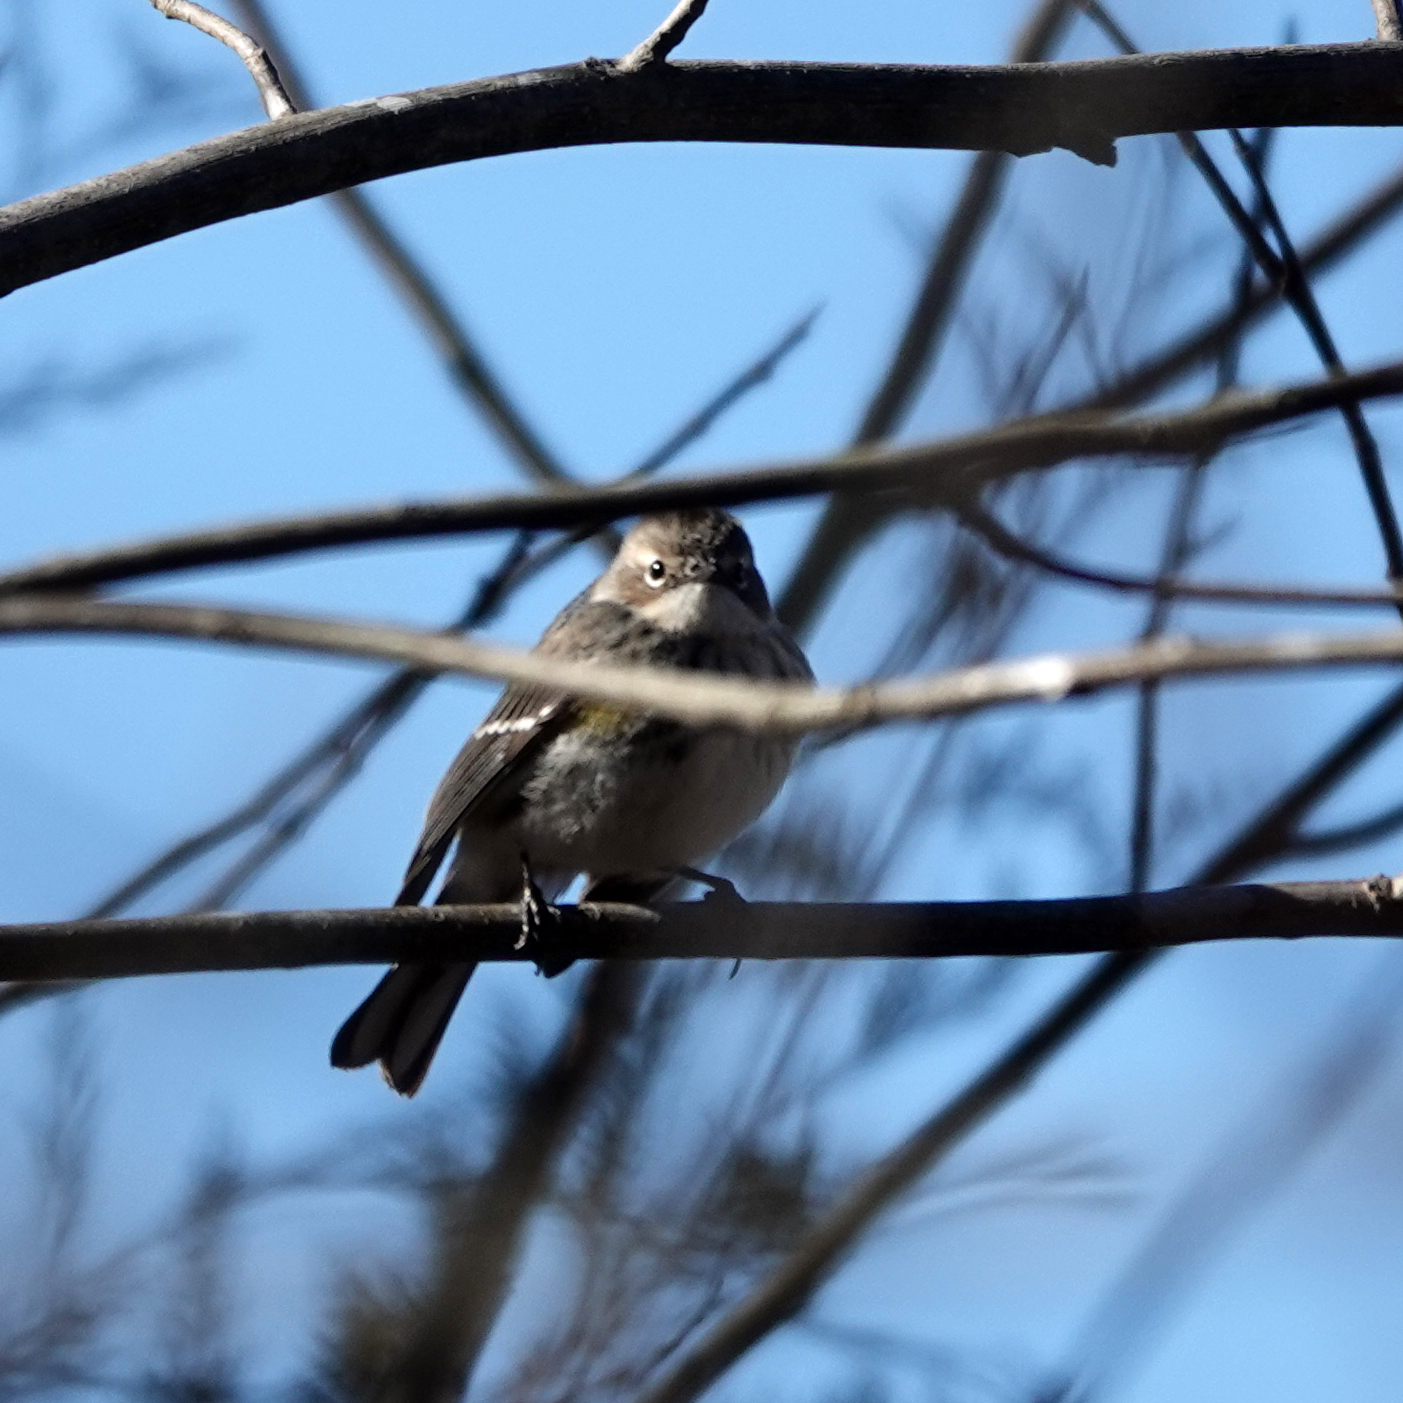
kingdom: Animalia
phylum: Chordata
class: Aves
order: Passeriformes
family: Parulidae
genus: Setophaga
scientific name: Setophaga coronata
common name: Myrtle warbler
